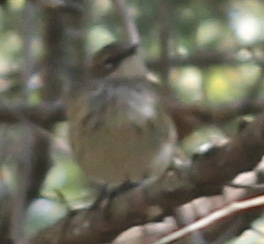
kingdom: Animalia
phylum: Chordata
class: Aves
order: Passeriformes
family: Parulidae
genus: Setophaga
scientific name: Setophaga coronata
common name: Myrtle warbler
